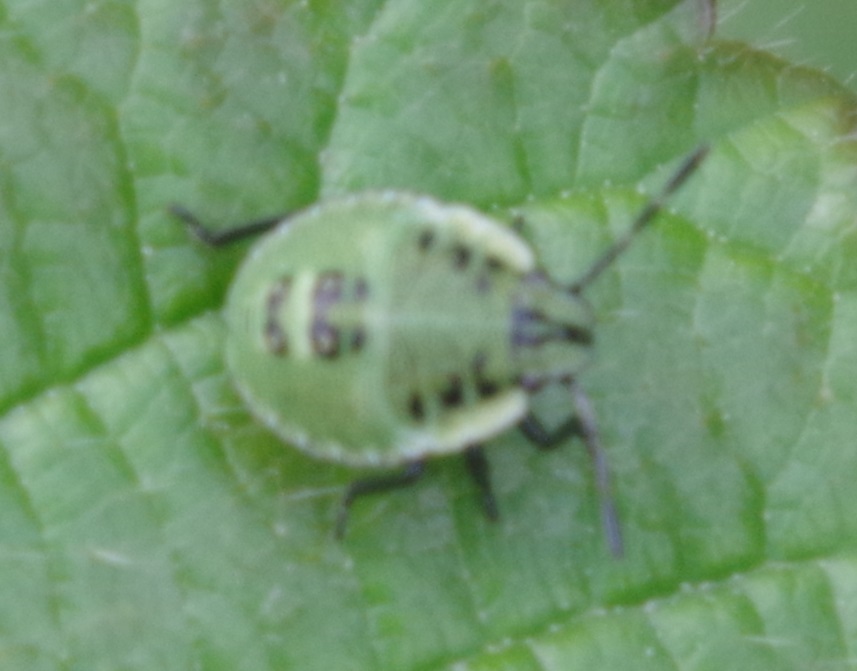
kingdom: Animalia
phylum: Arthropoda
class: Insecta
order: Hemiptera
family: Pentatomidae
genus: Palomena
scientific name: Palomena prasina
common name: Green shieldbug
